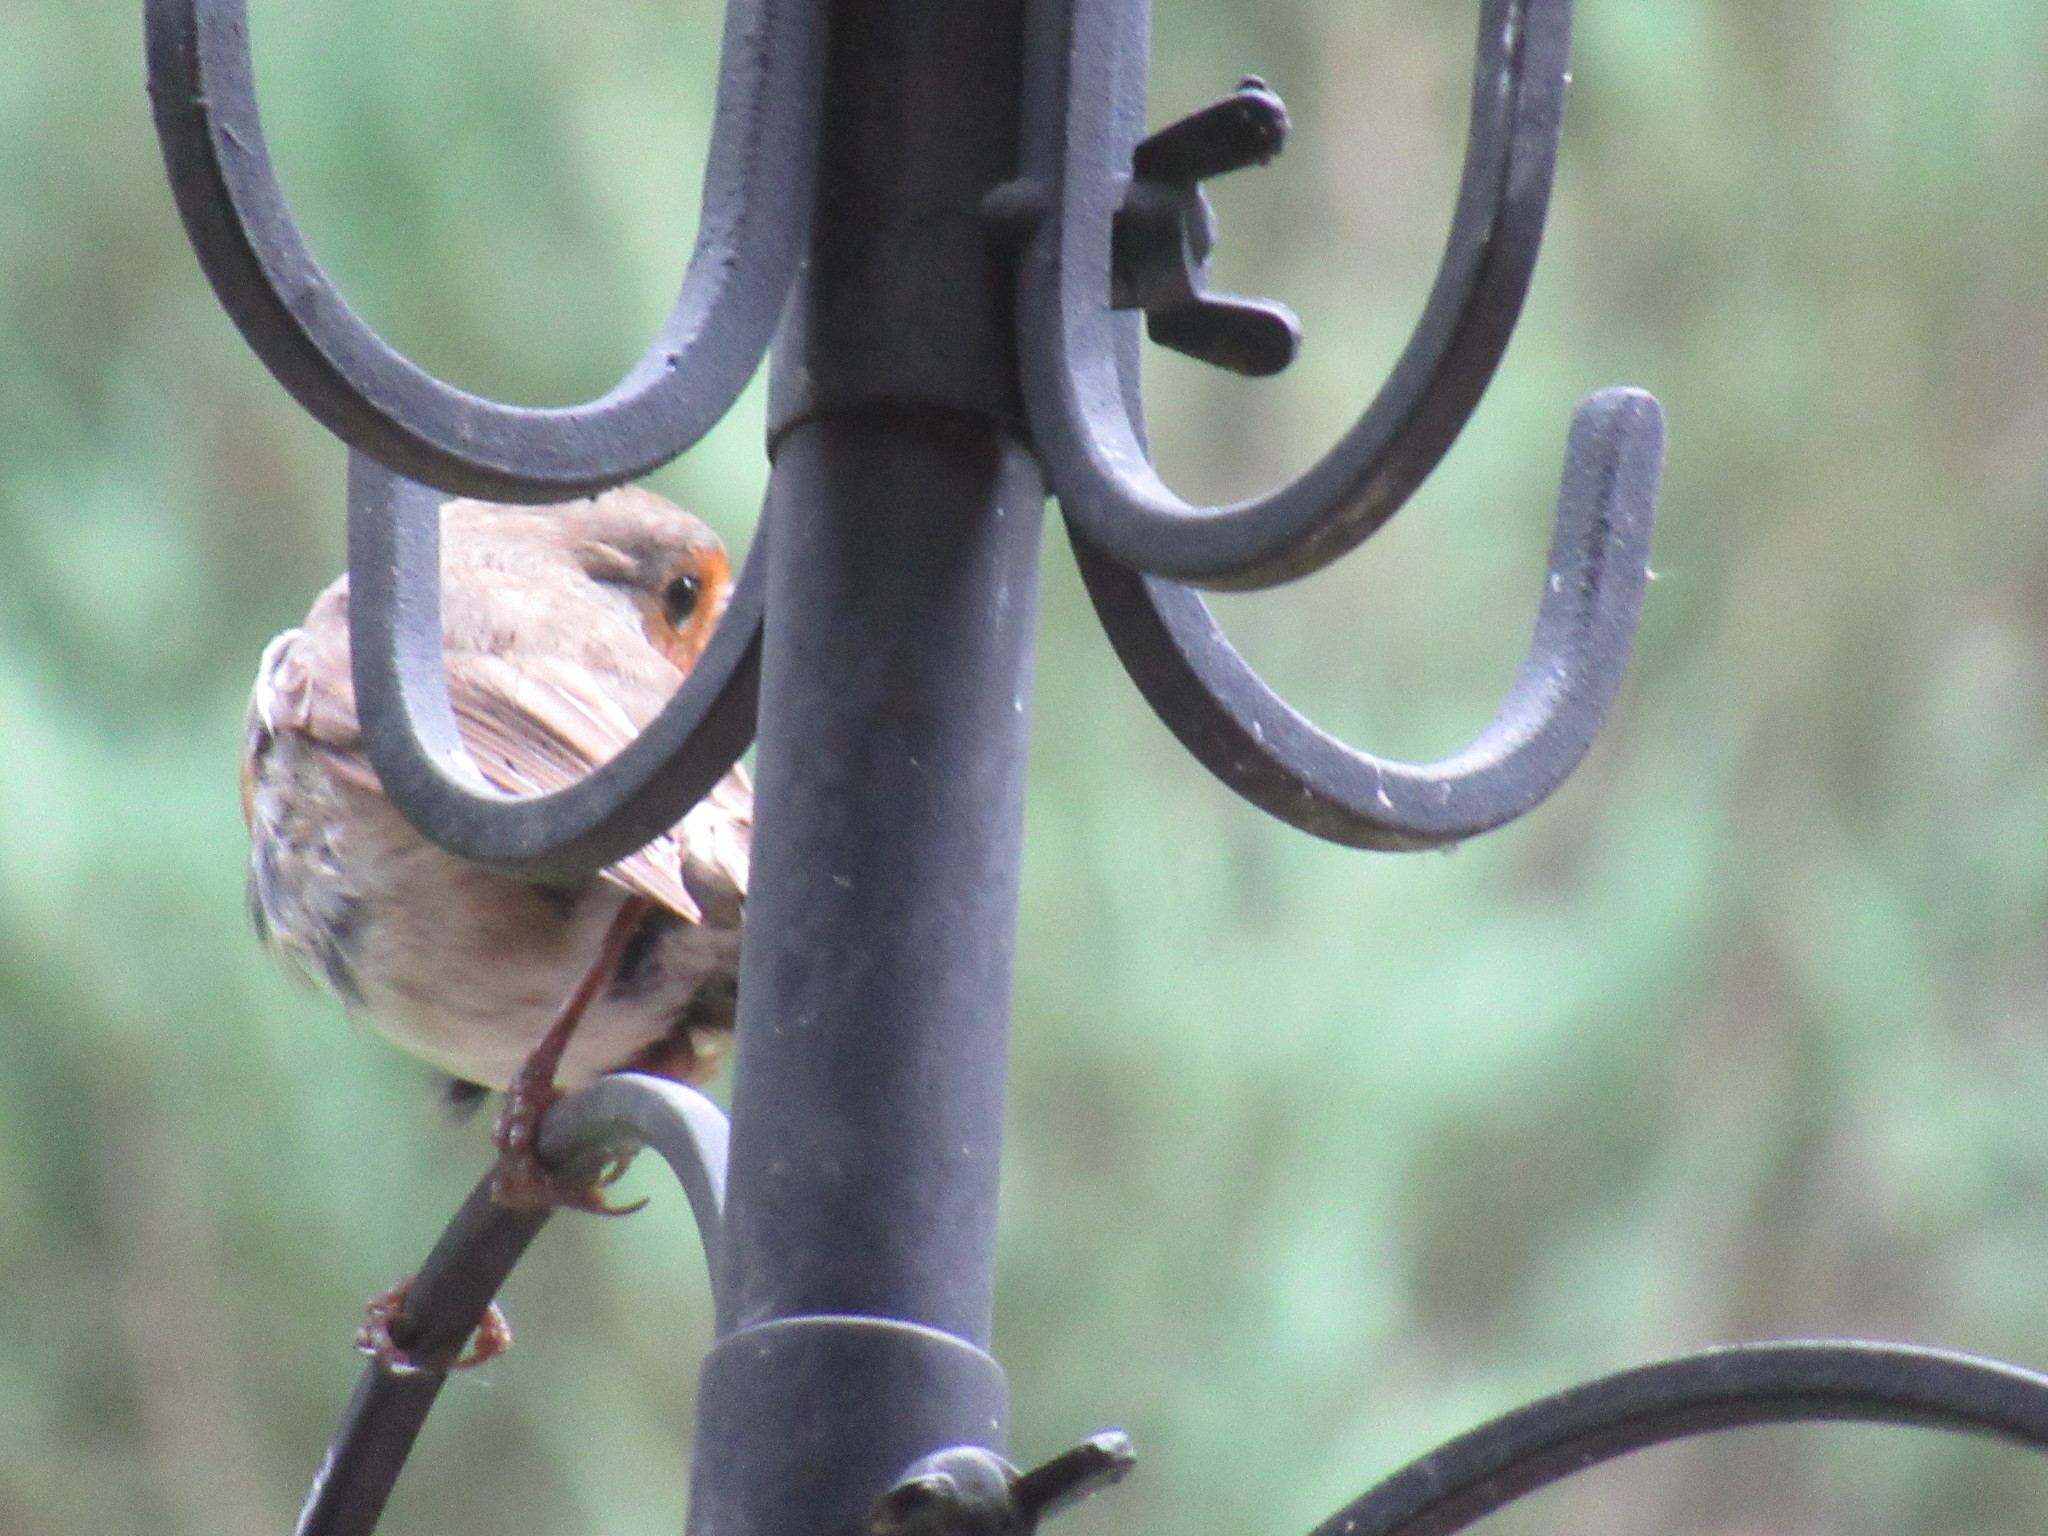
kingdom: Animalia
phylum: Chordata
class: Aves
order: Passeriformes
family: Muscicapidae
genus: Erithacus
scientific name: Erithacus rubecula
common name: European robin
